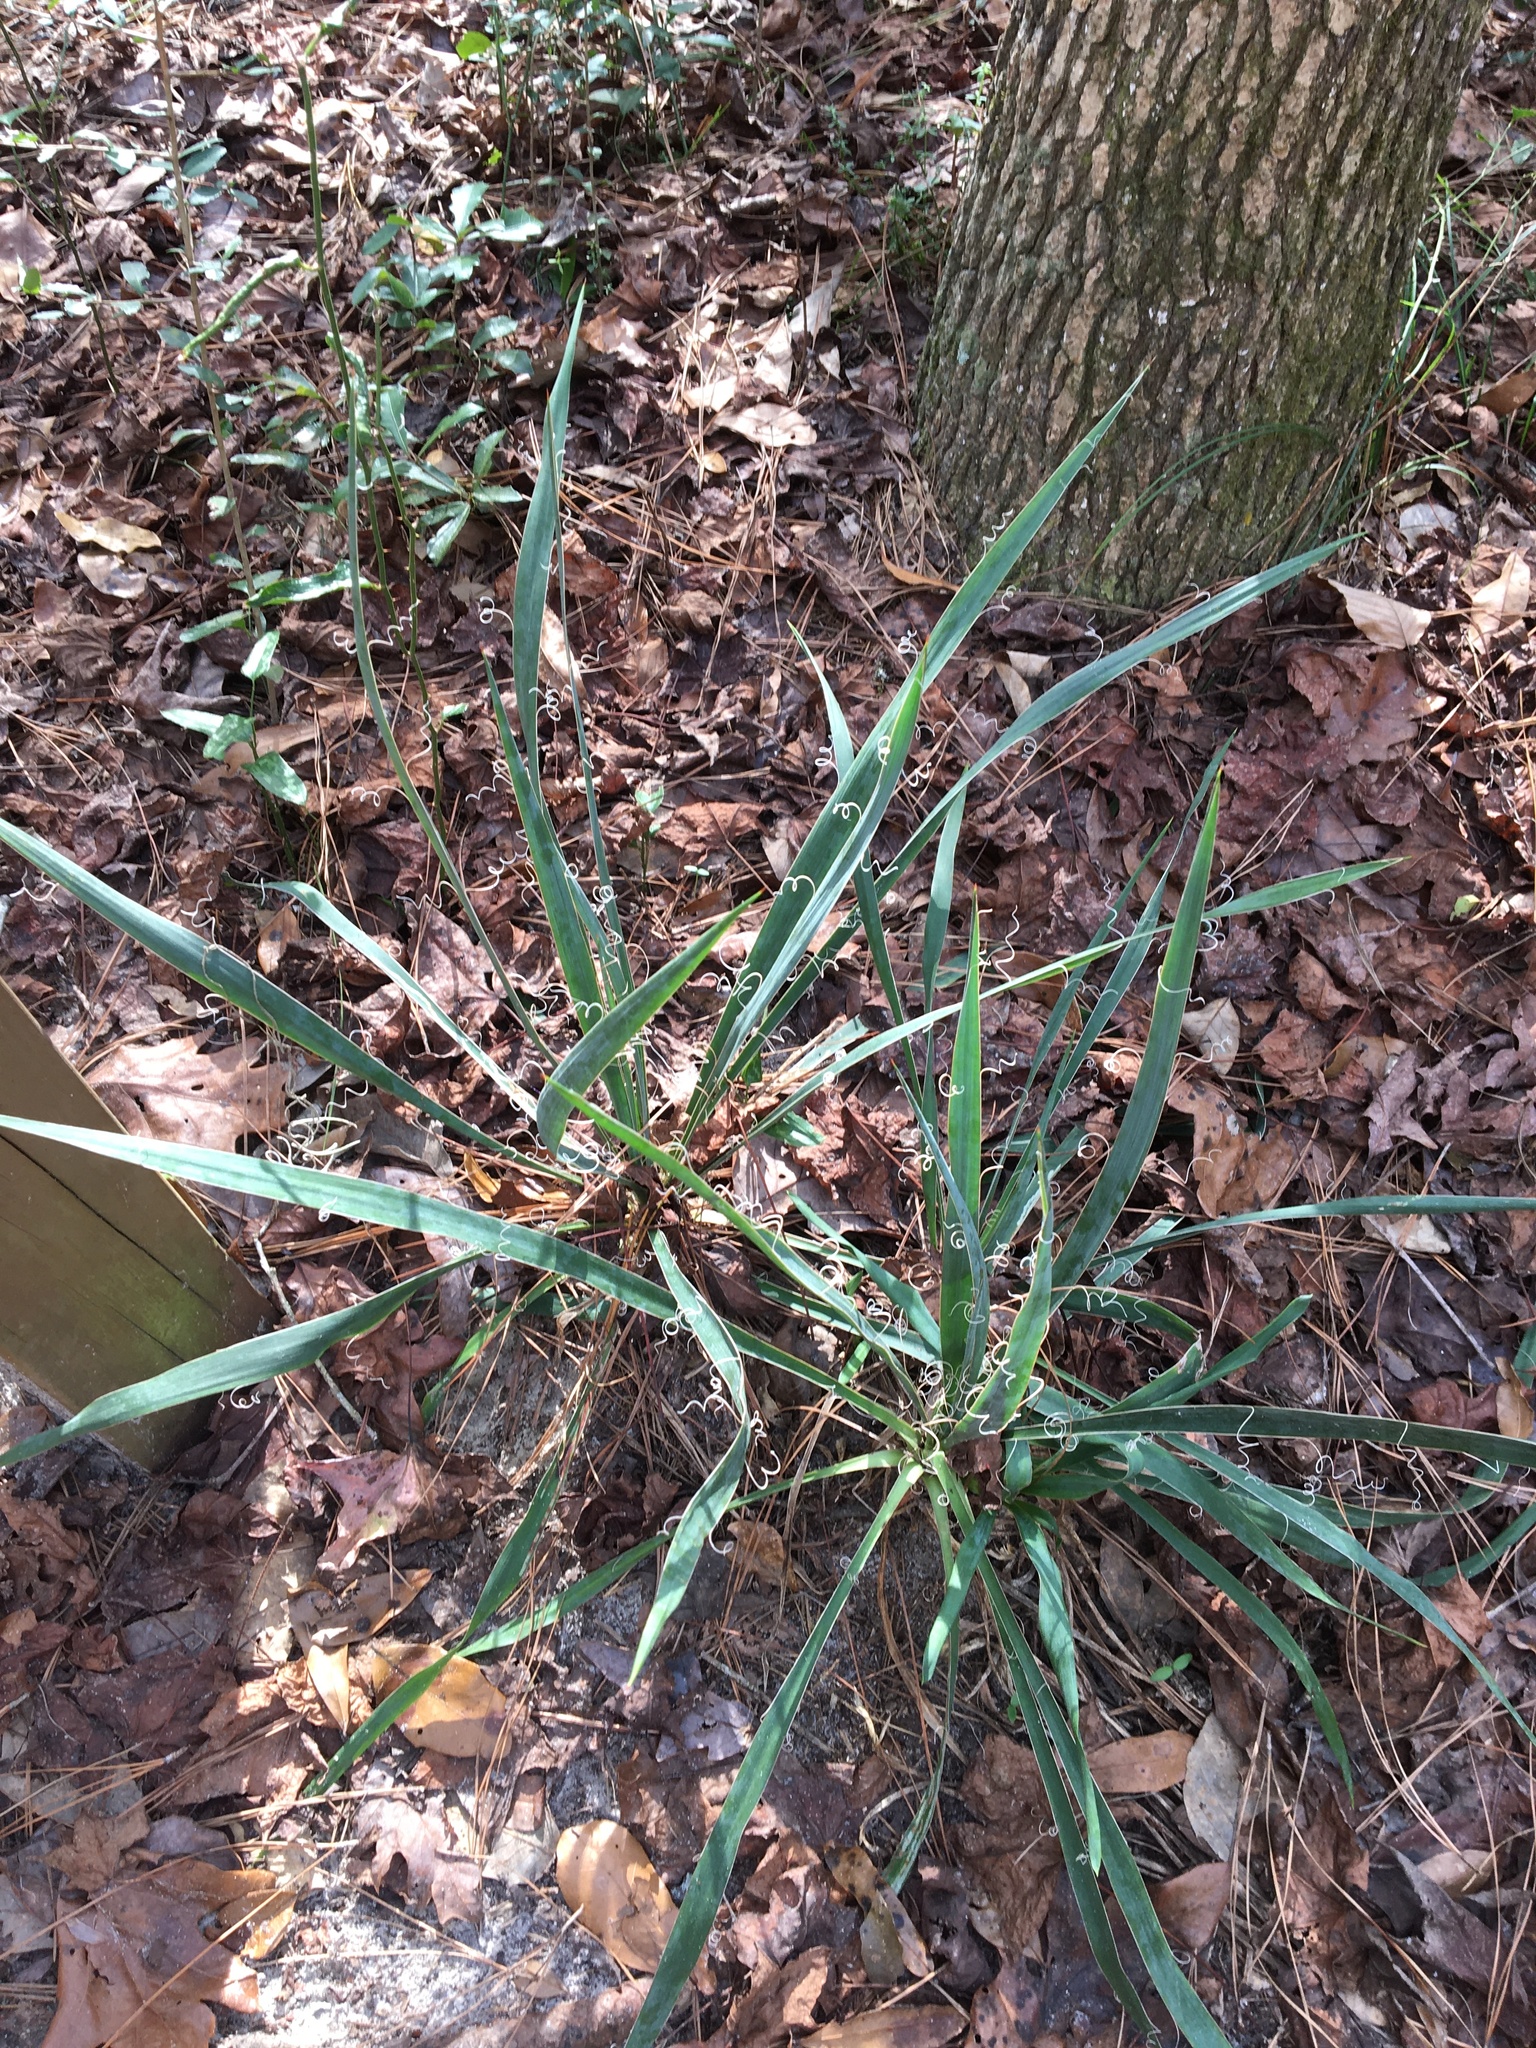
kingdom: Plantae
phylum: Tracheophyta
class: Liliopsida
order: Asparagales
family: Asparagaceae
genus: Yucca
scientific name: Yucca filamentosa
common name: Adam's-needle
